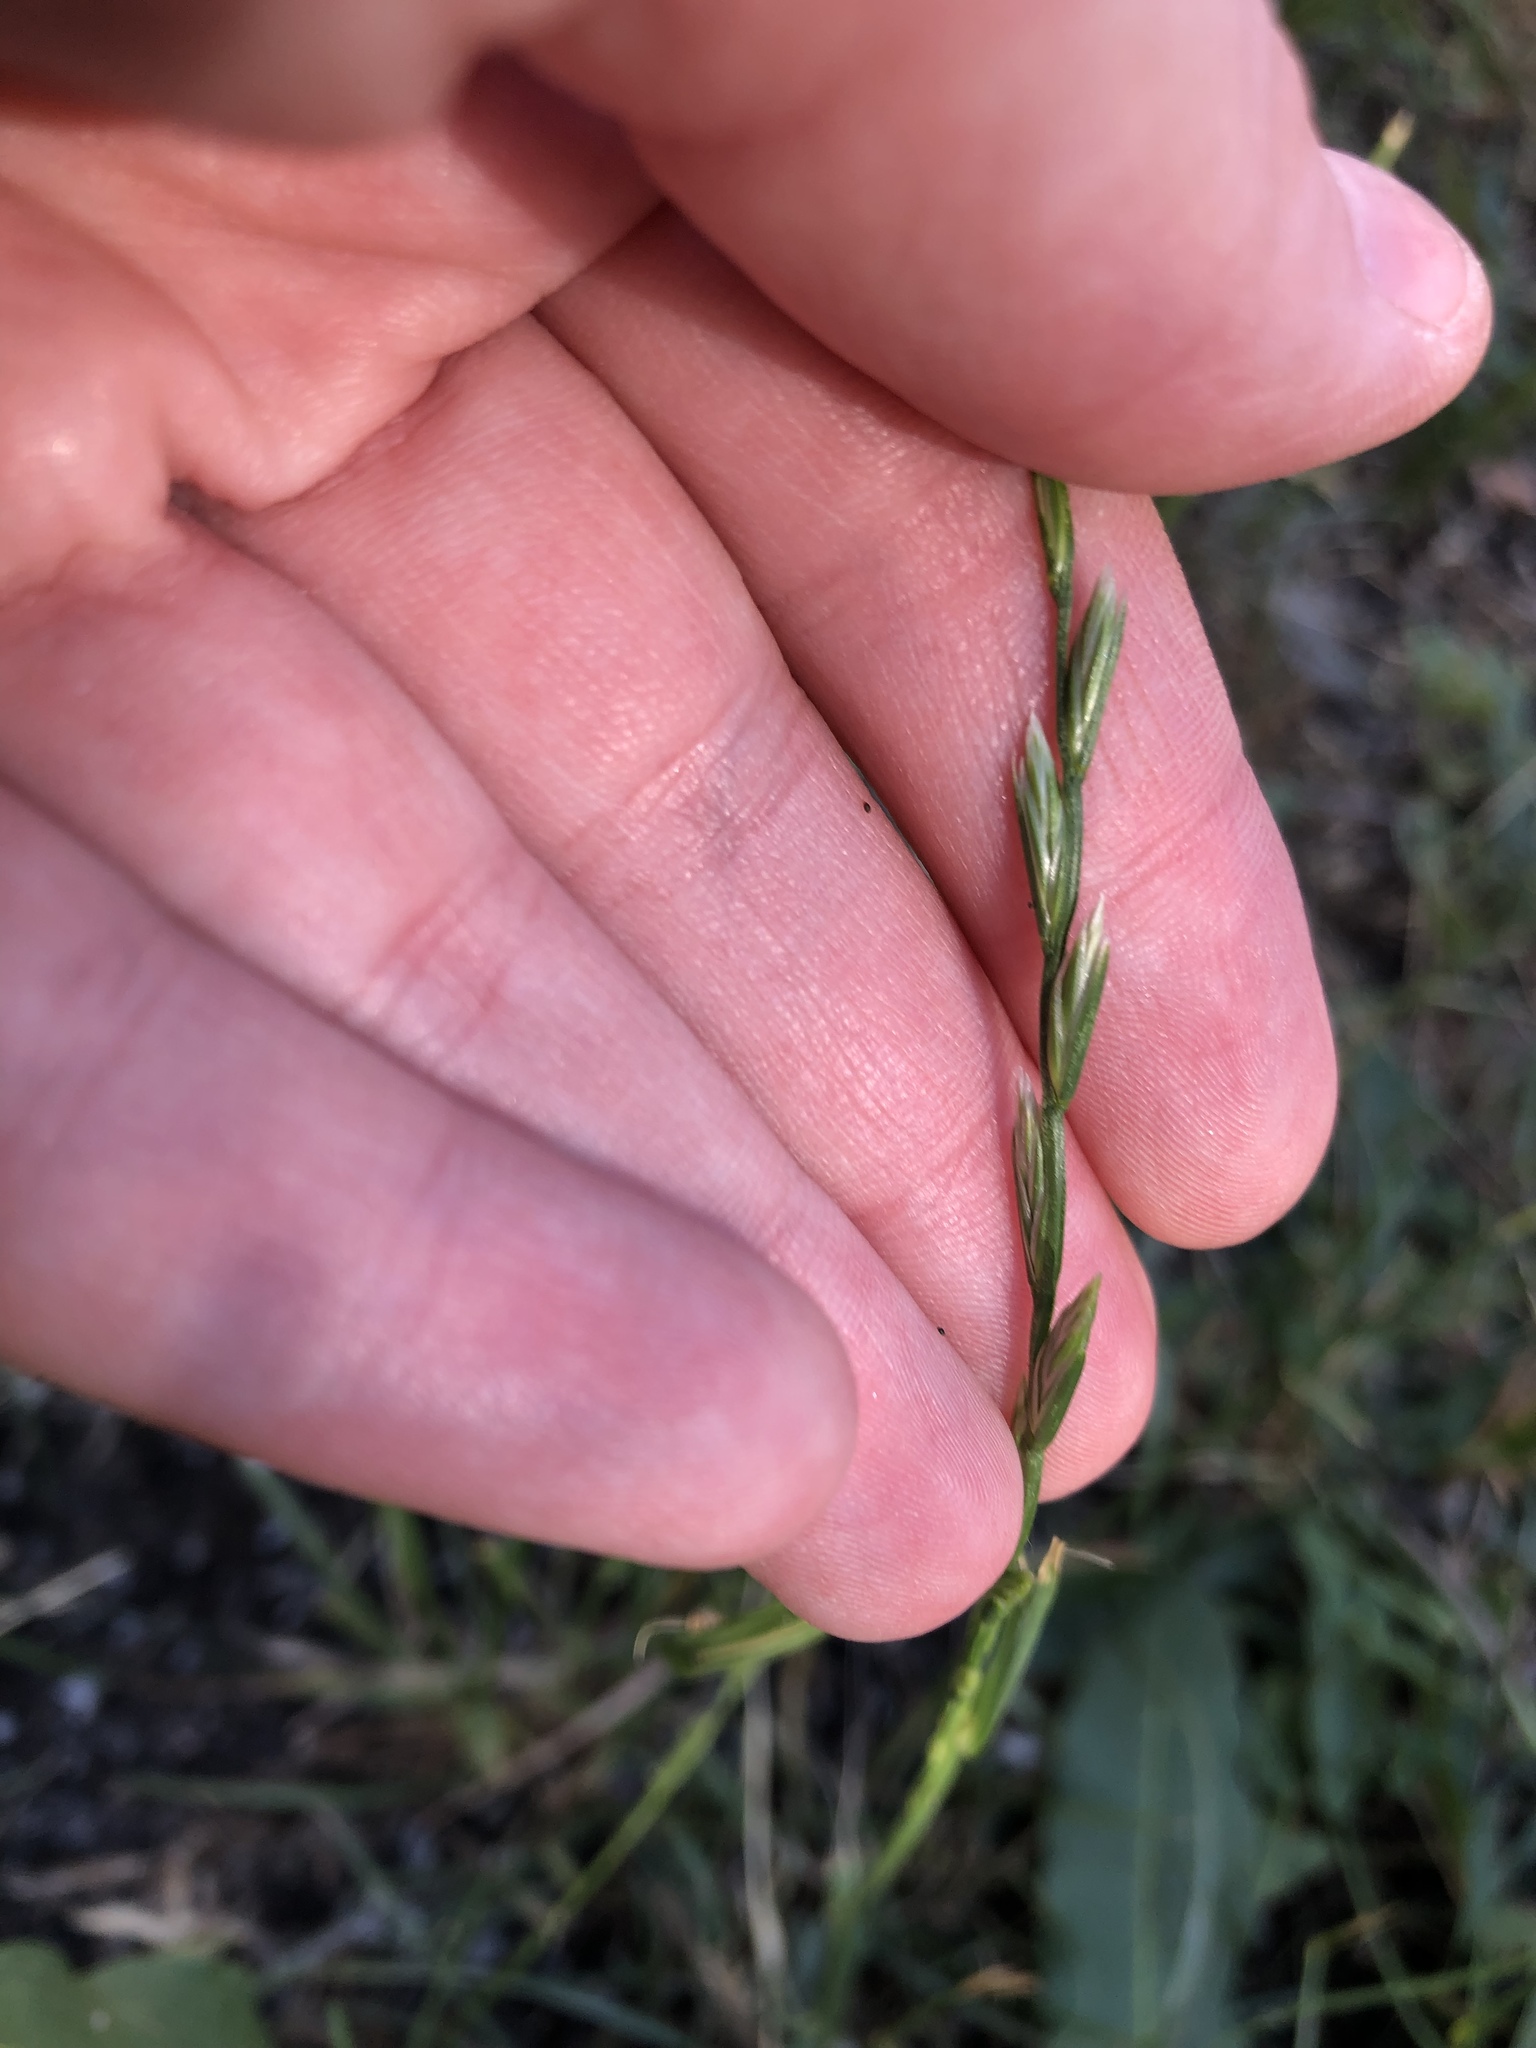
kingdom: Plantae
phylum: Tracheophyta
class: Liliopsida
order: Poales
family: Poaceae
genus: Lolium
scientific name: Lolium perenne
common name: Perennial ryegrass
